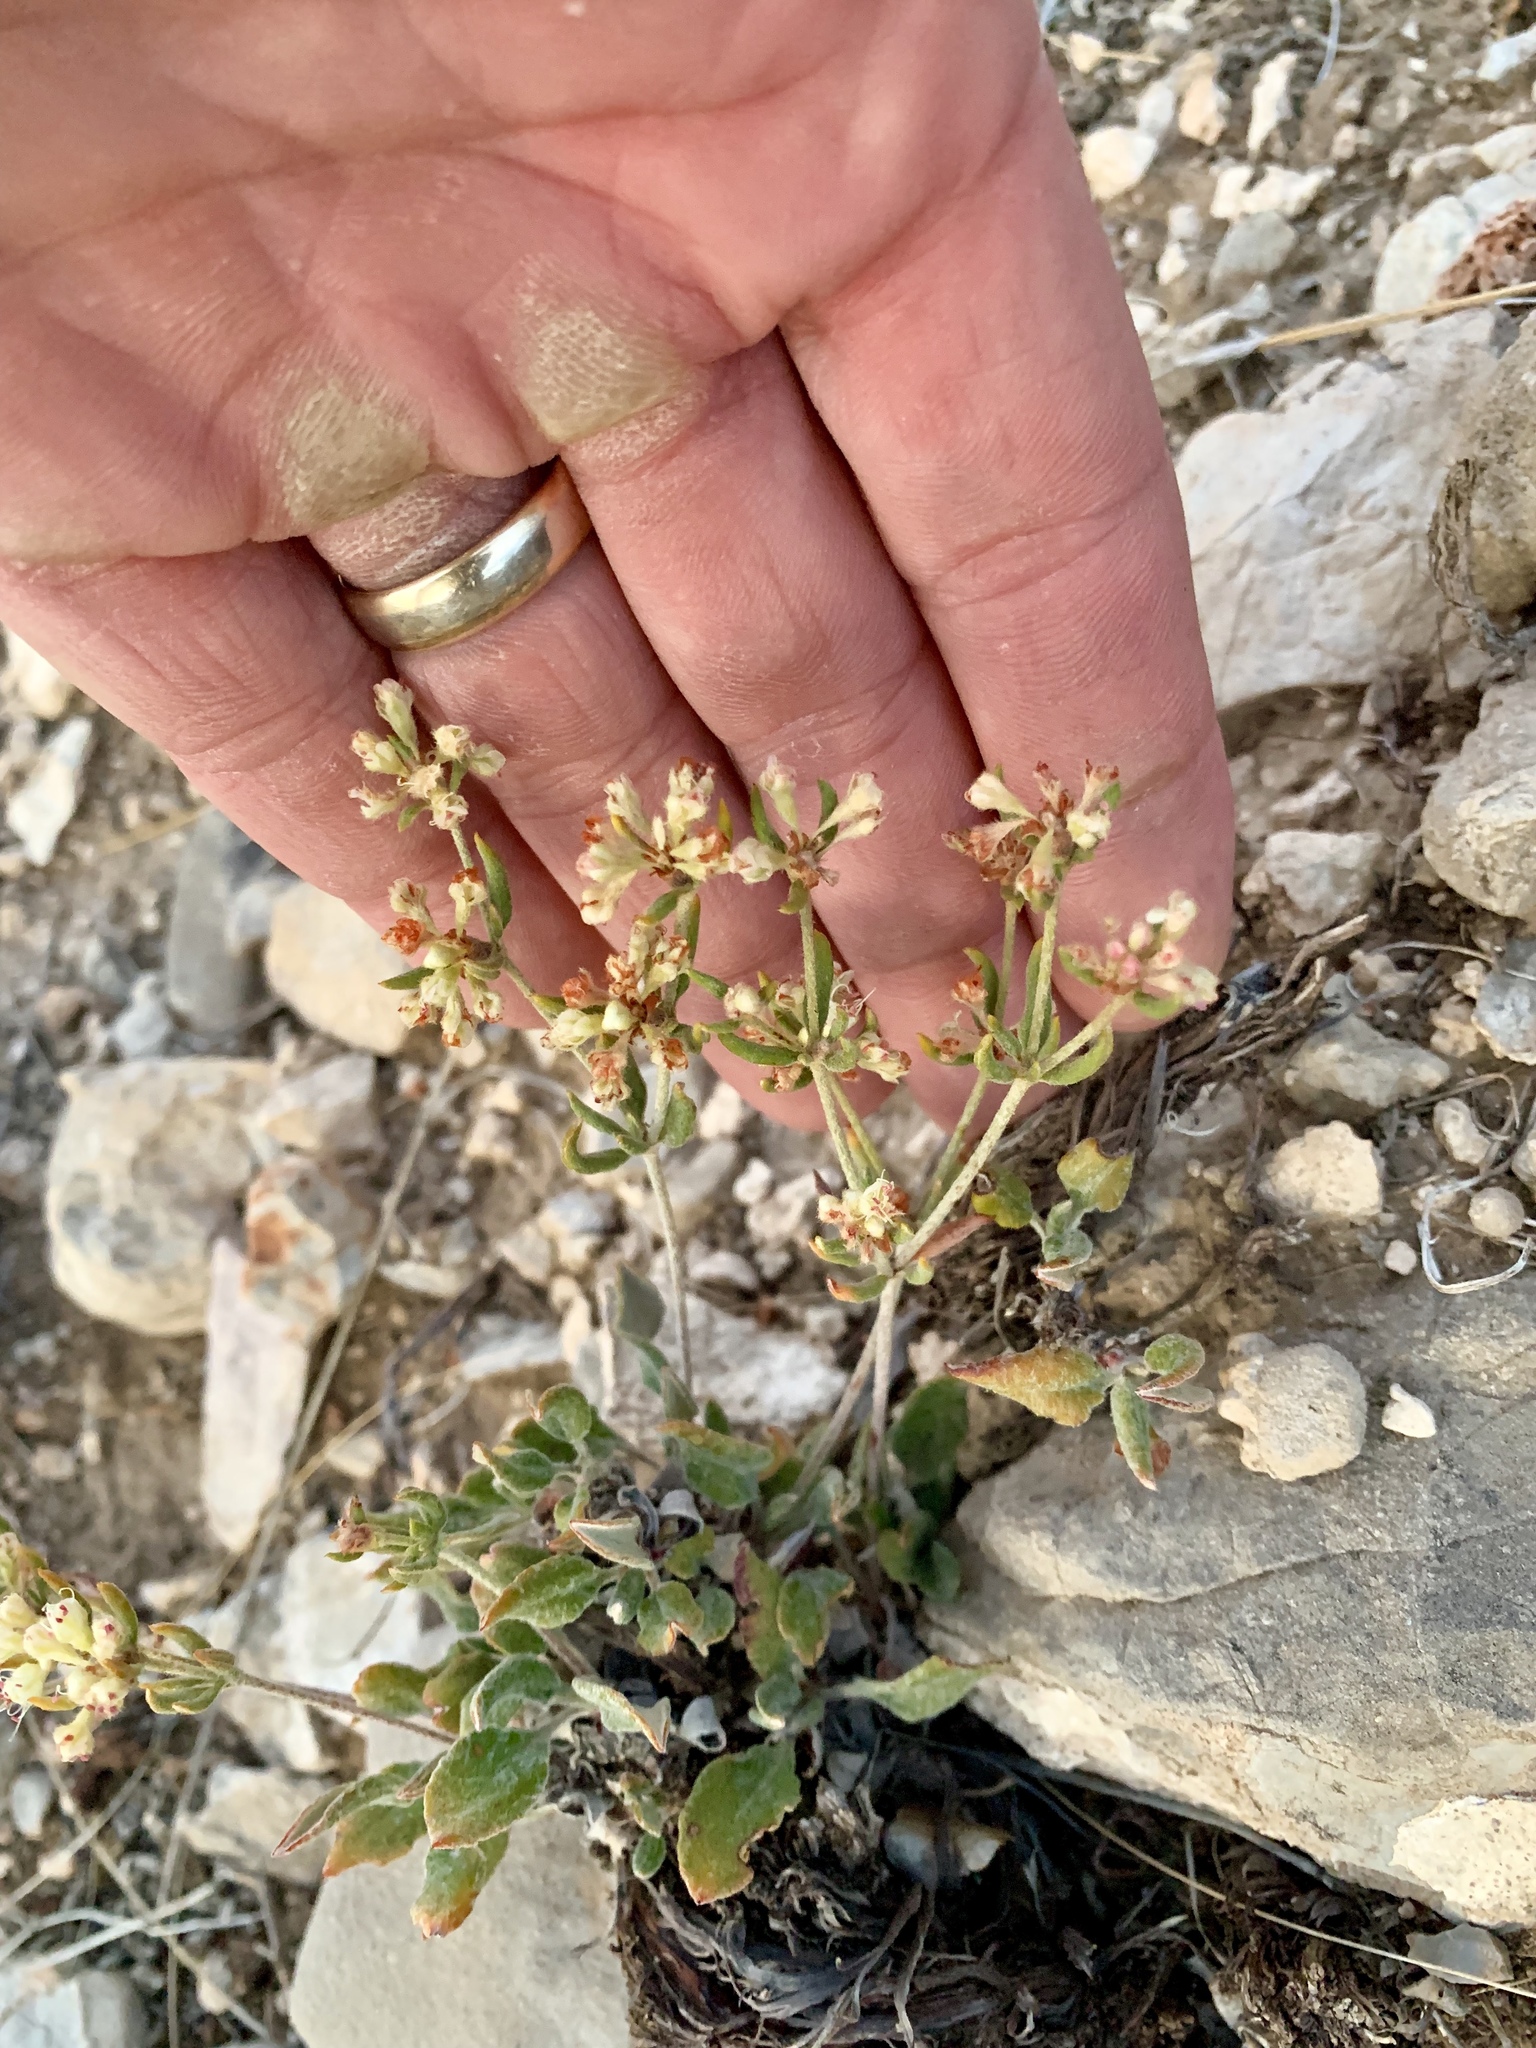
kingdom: Plantae
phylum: Tracheophyta
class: Magnoliopsida
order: Caryophyllales
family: Polygonaceae
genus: Eriogonum
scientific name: Eriogonum jamesii
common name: Antelope-sage
